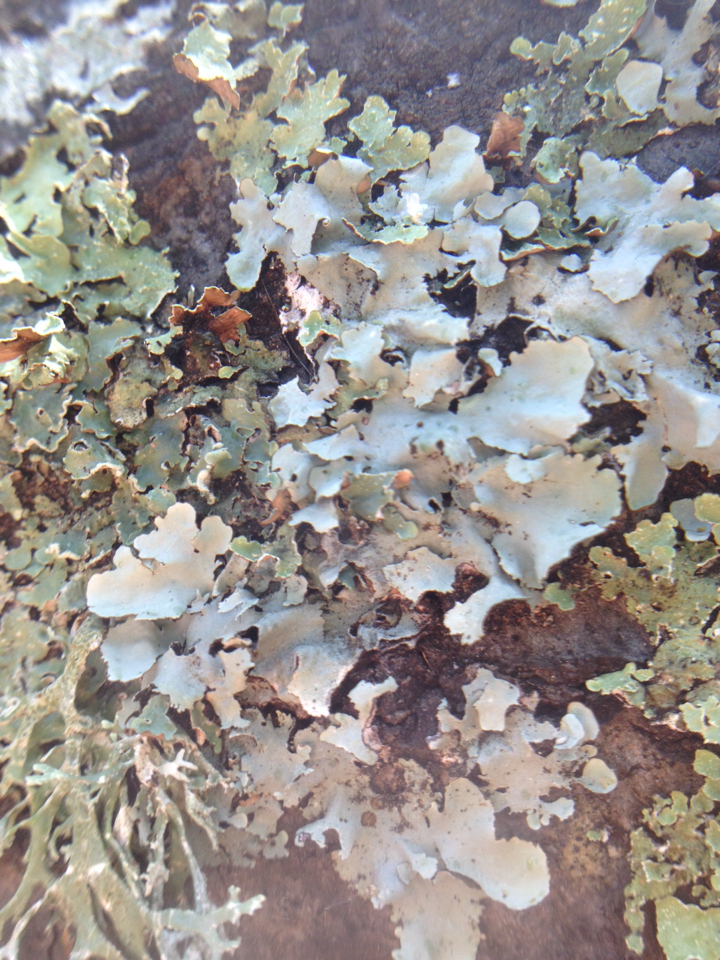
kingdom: Fungi
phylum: Ascomycota
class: Lecanoromycetes
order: Lecanorales
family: Parmeliaceae
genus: Evernia
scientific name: Evernia prunastri
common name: Oak moss
